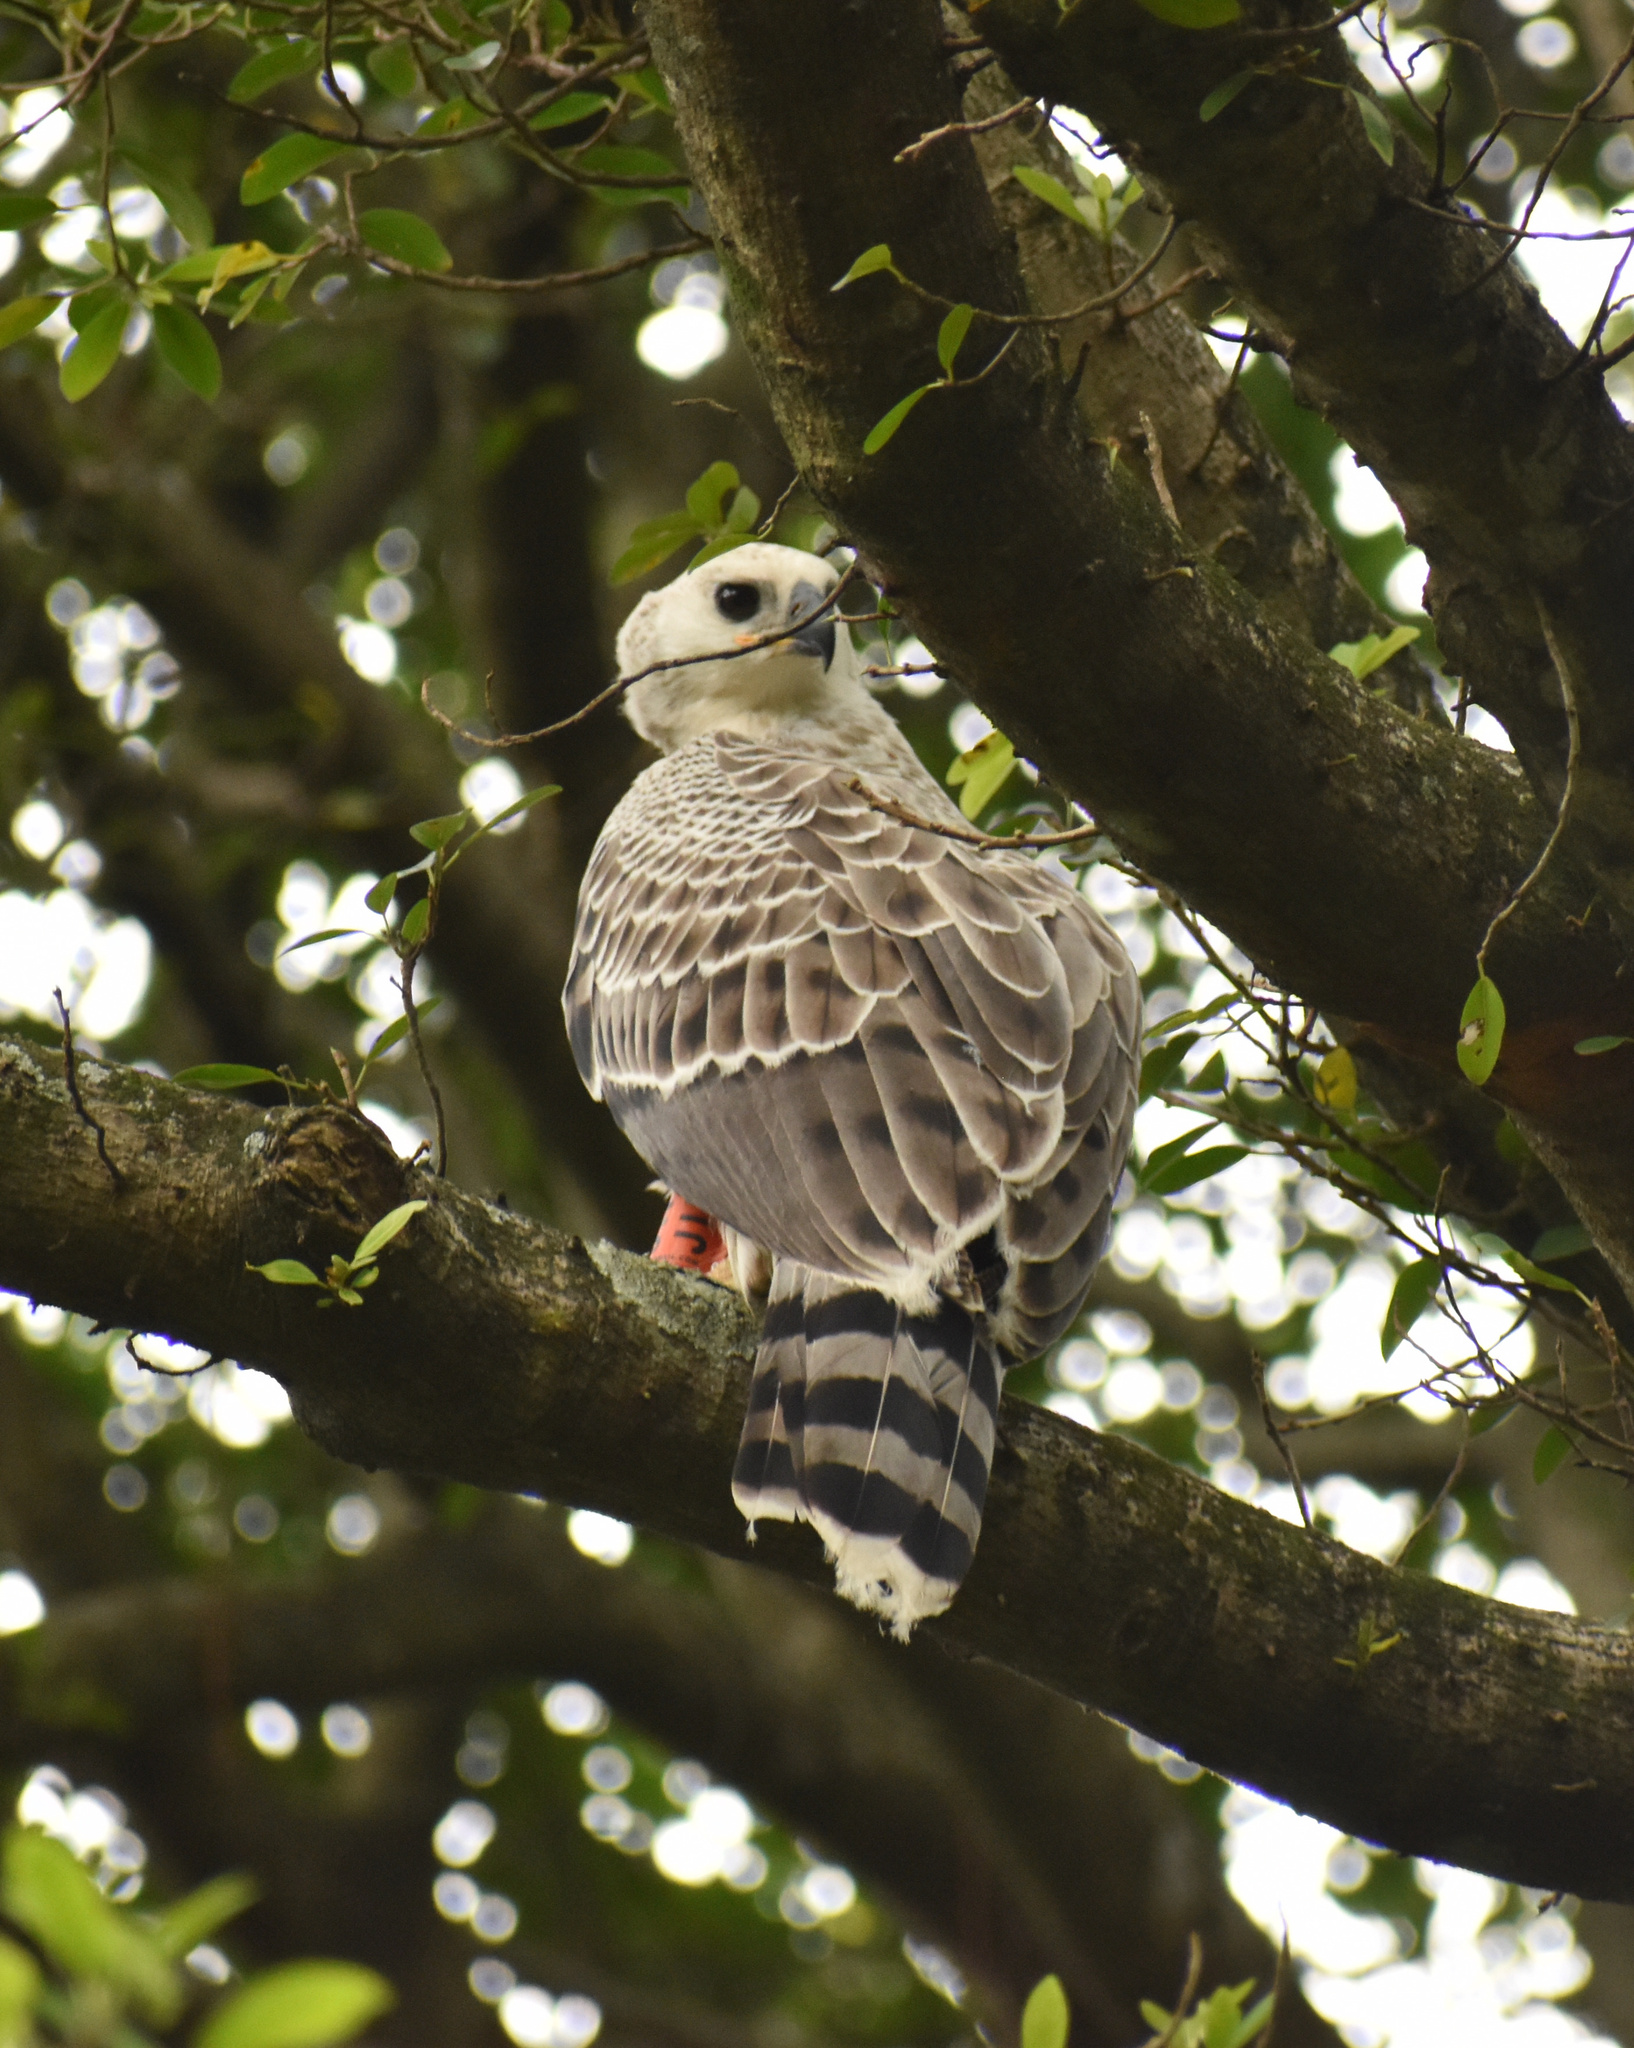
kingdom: Animalia
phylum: Chordata
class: Aves
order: Accipitriformes
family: Accipitridae
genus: Stephanoaetus
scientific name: Stephanoaetus coronatus
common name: Crowned eagle
